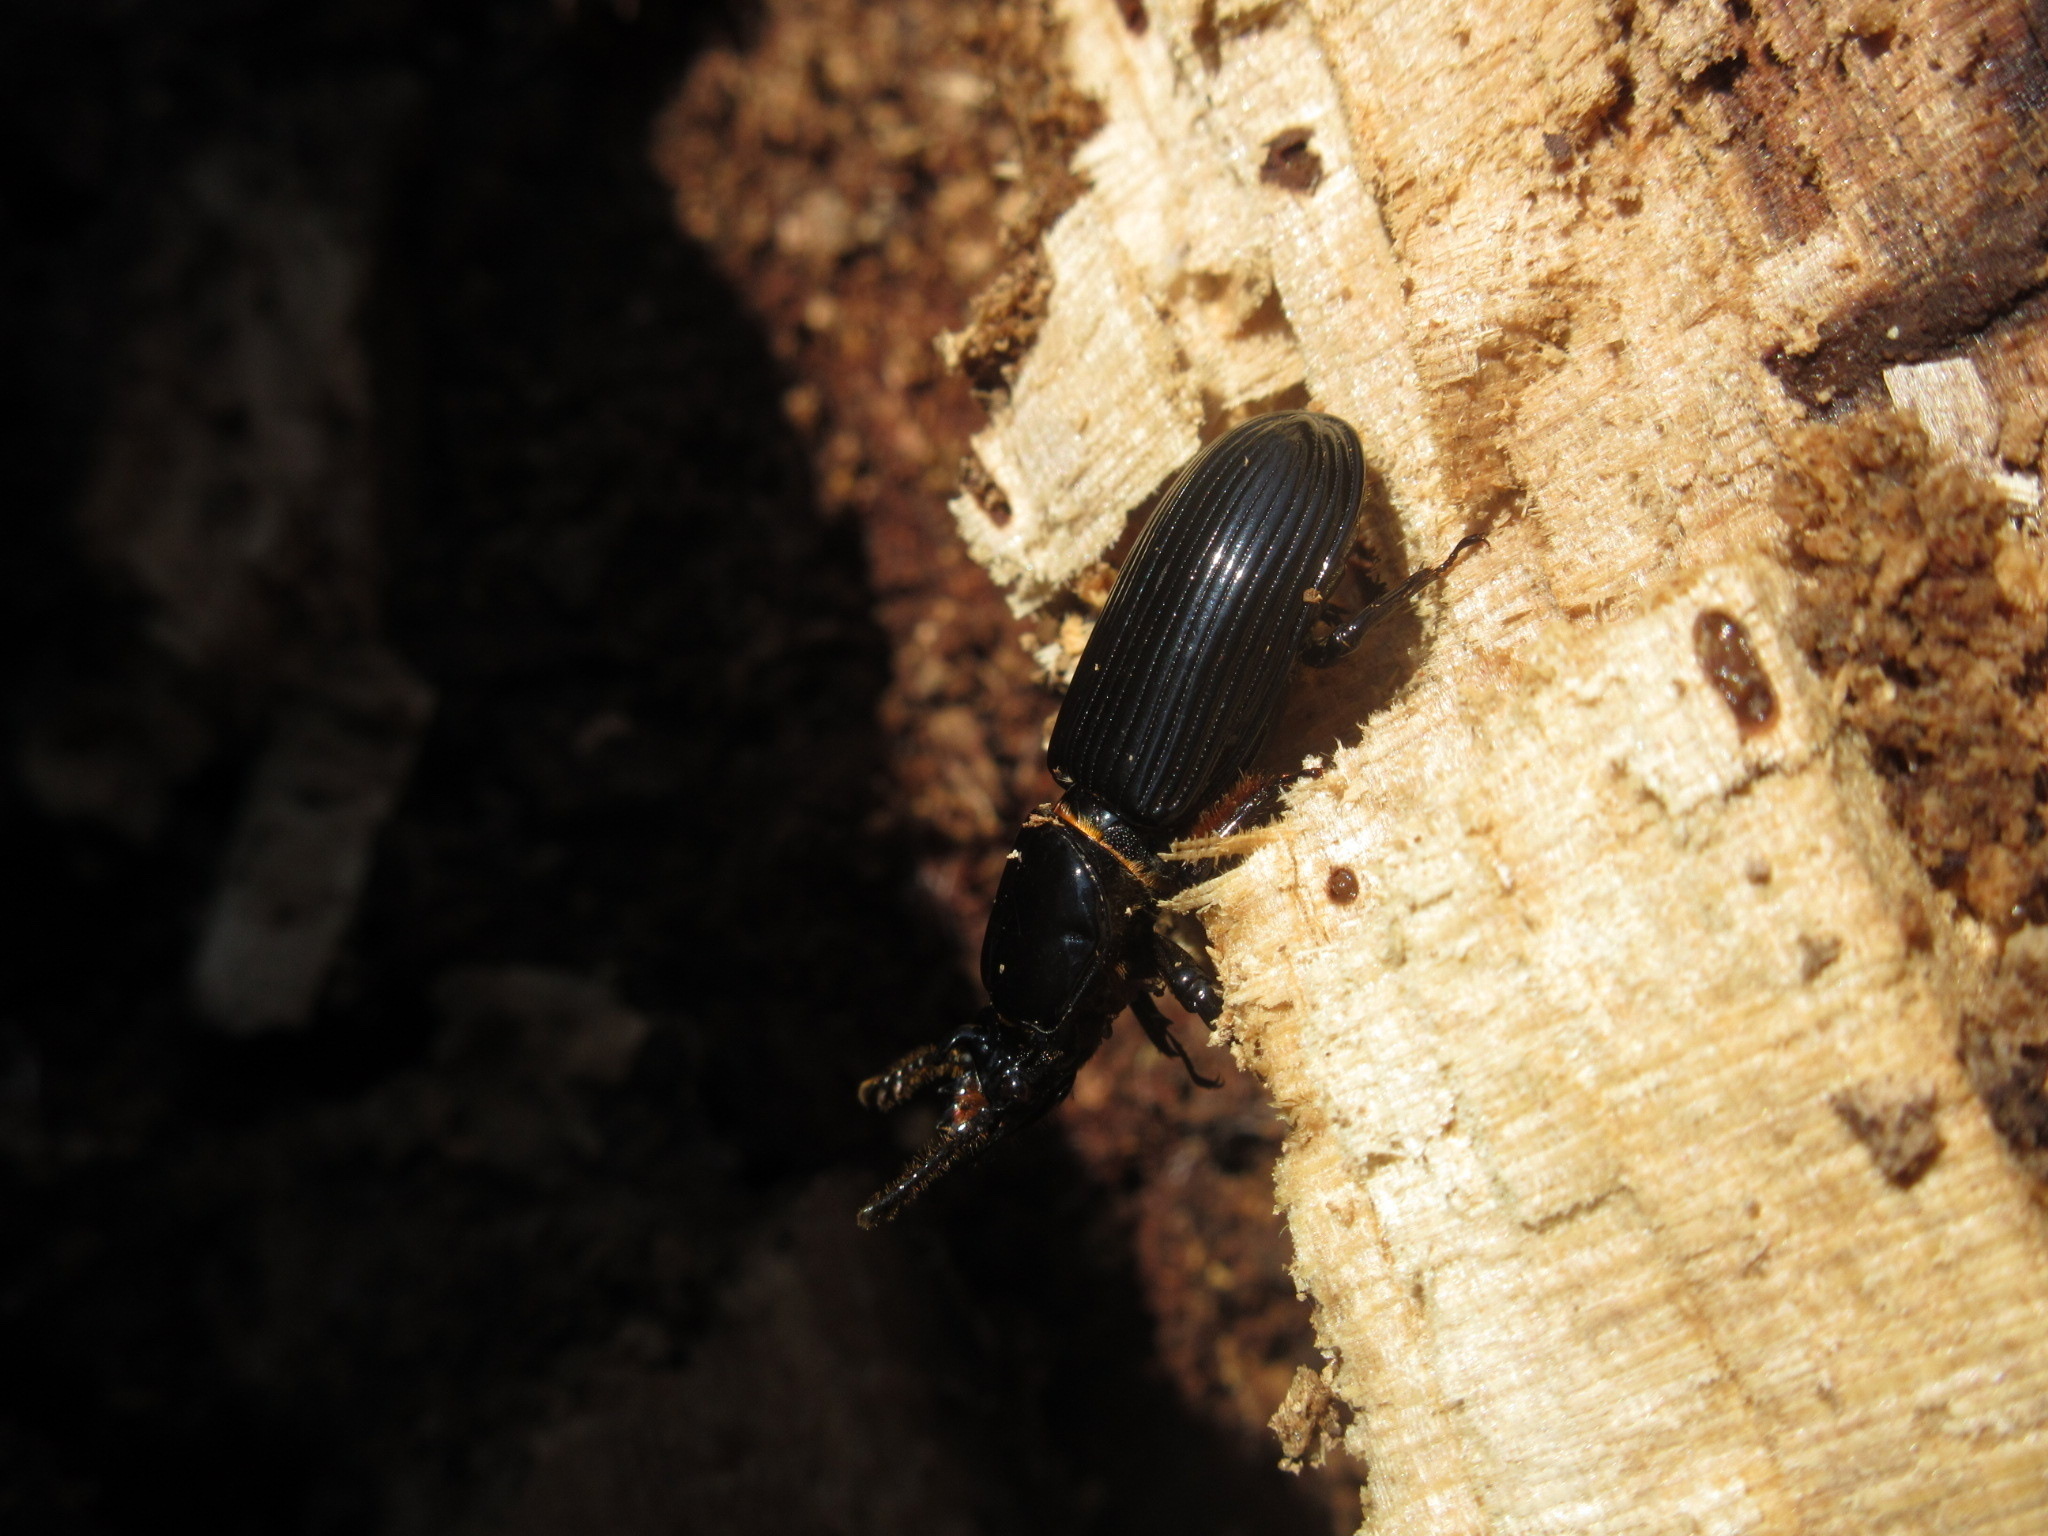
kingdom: Animalia
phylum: Arthropoda
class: Insecta
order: Coleoptera
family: Passalidae
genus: Odontotaenius
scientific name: Odontotaenius disjunctus
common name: Patent leather beetle
